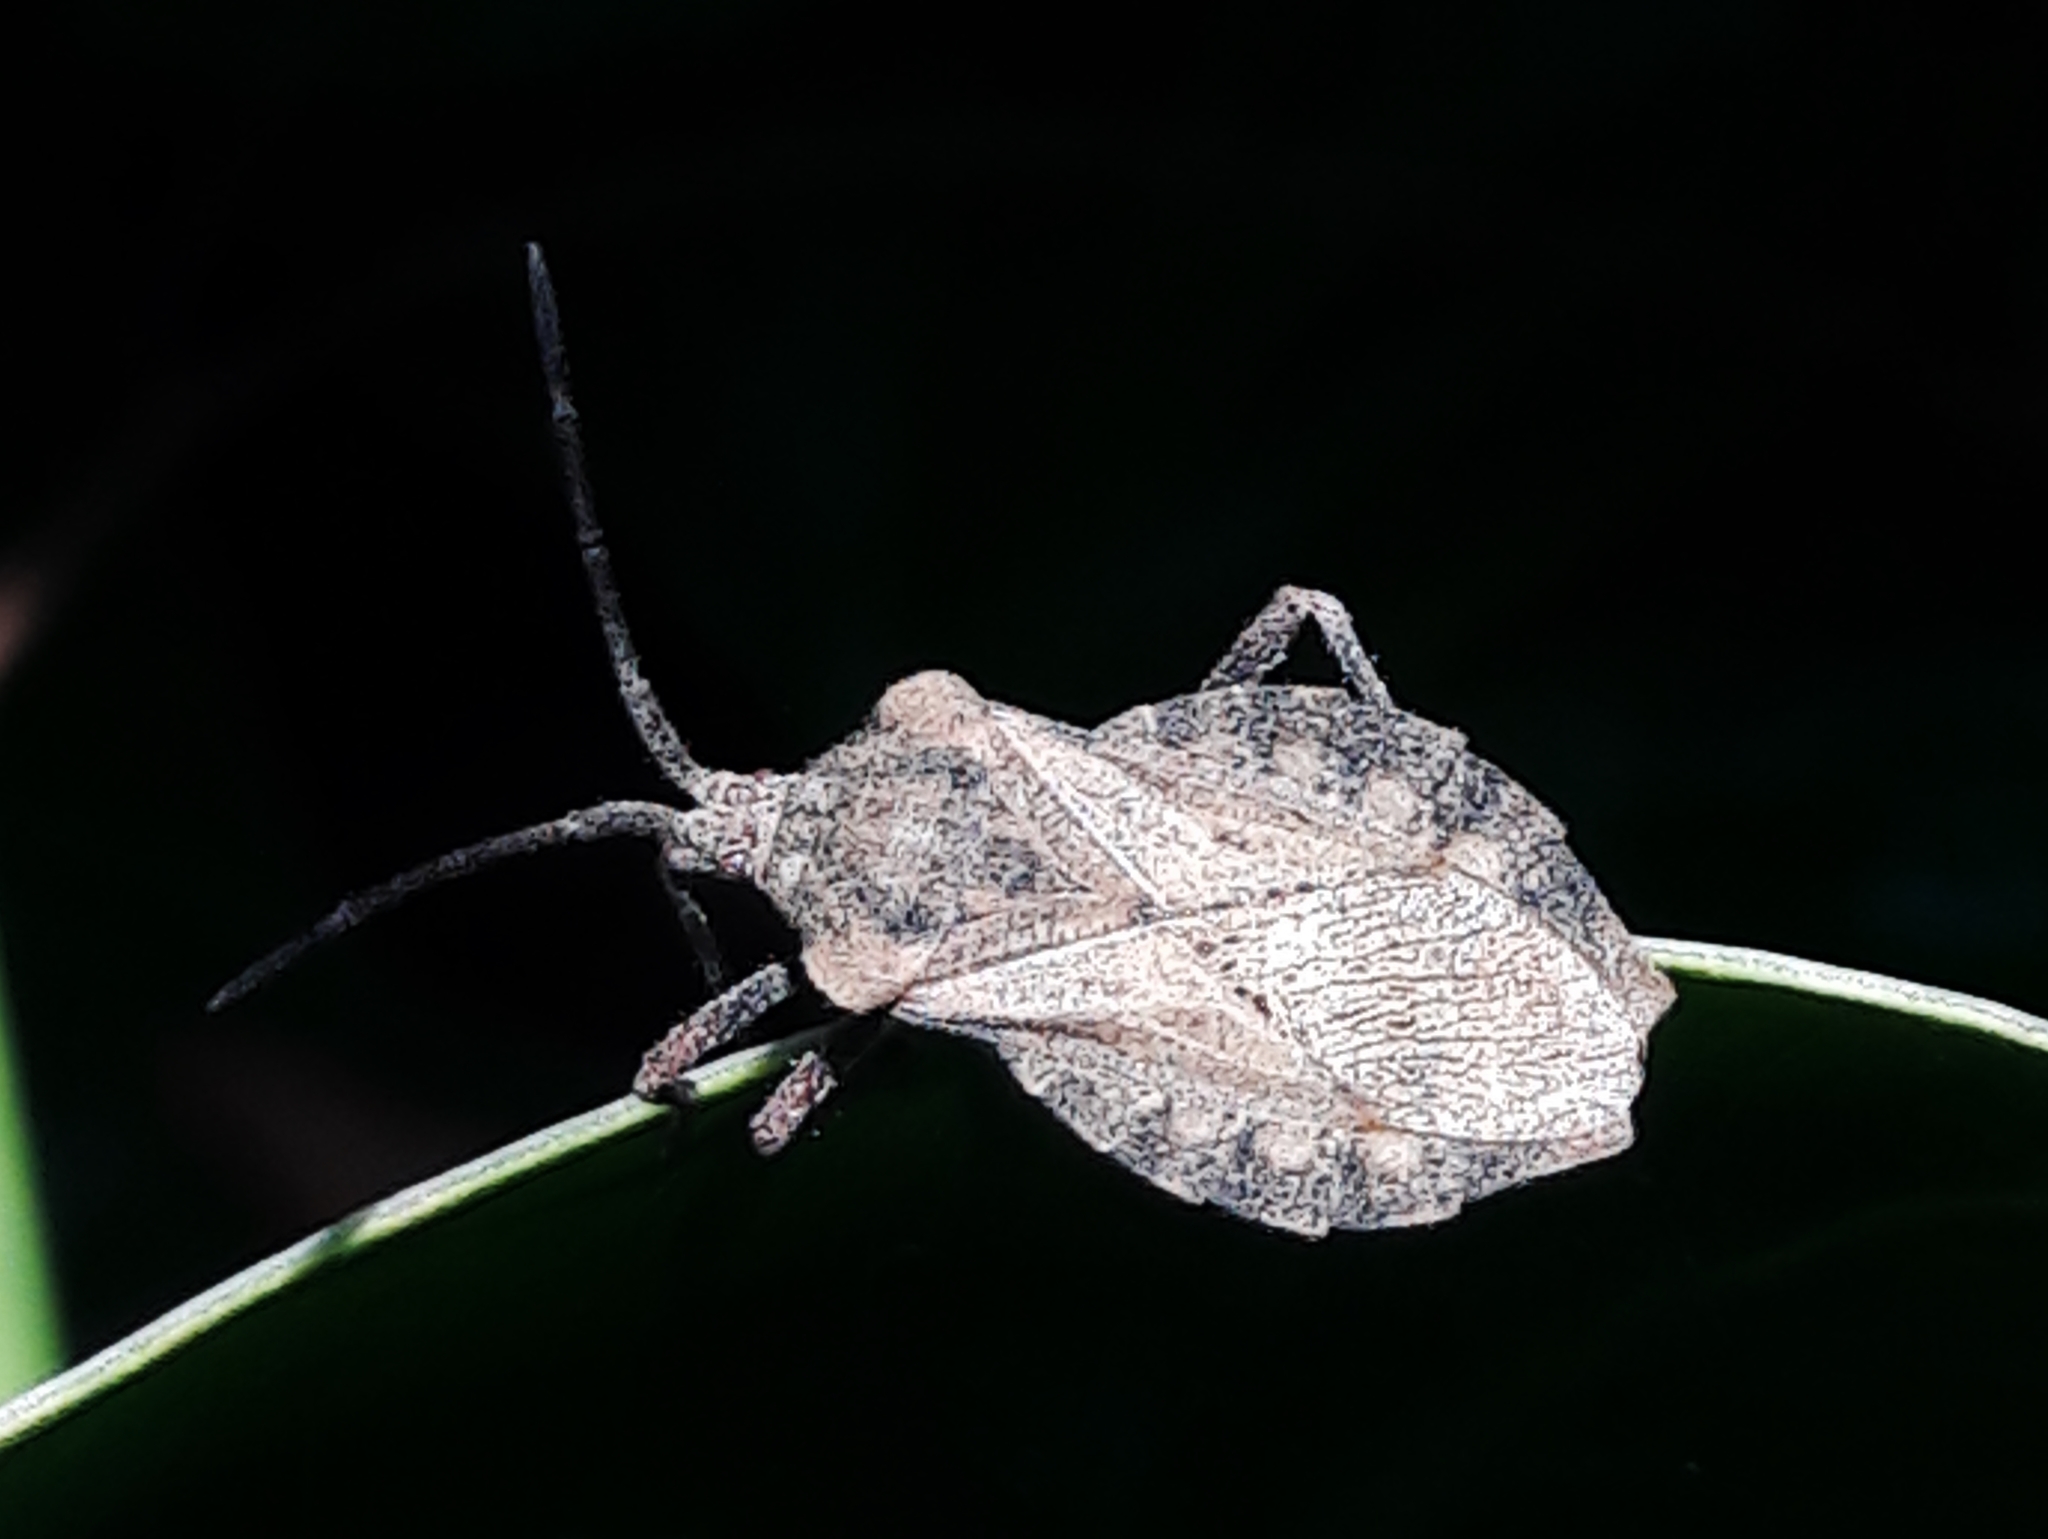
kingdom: Animalia
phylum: Arthropoda
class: Insecta
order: Hemiptera
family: Coreidae
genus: Spartocera
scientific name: Spartocera fusca
